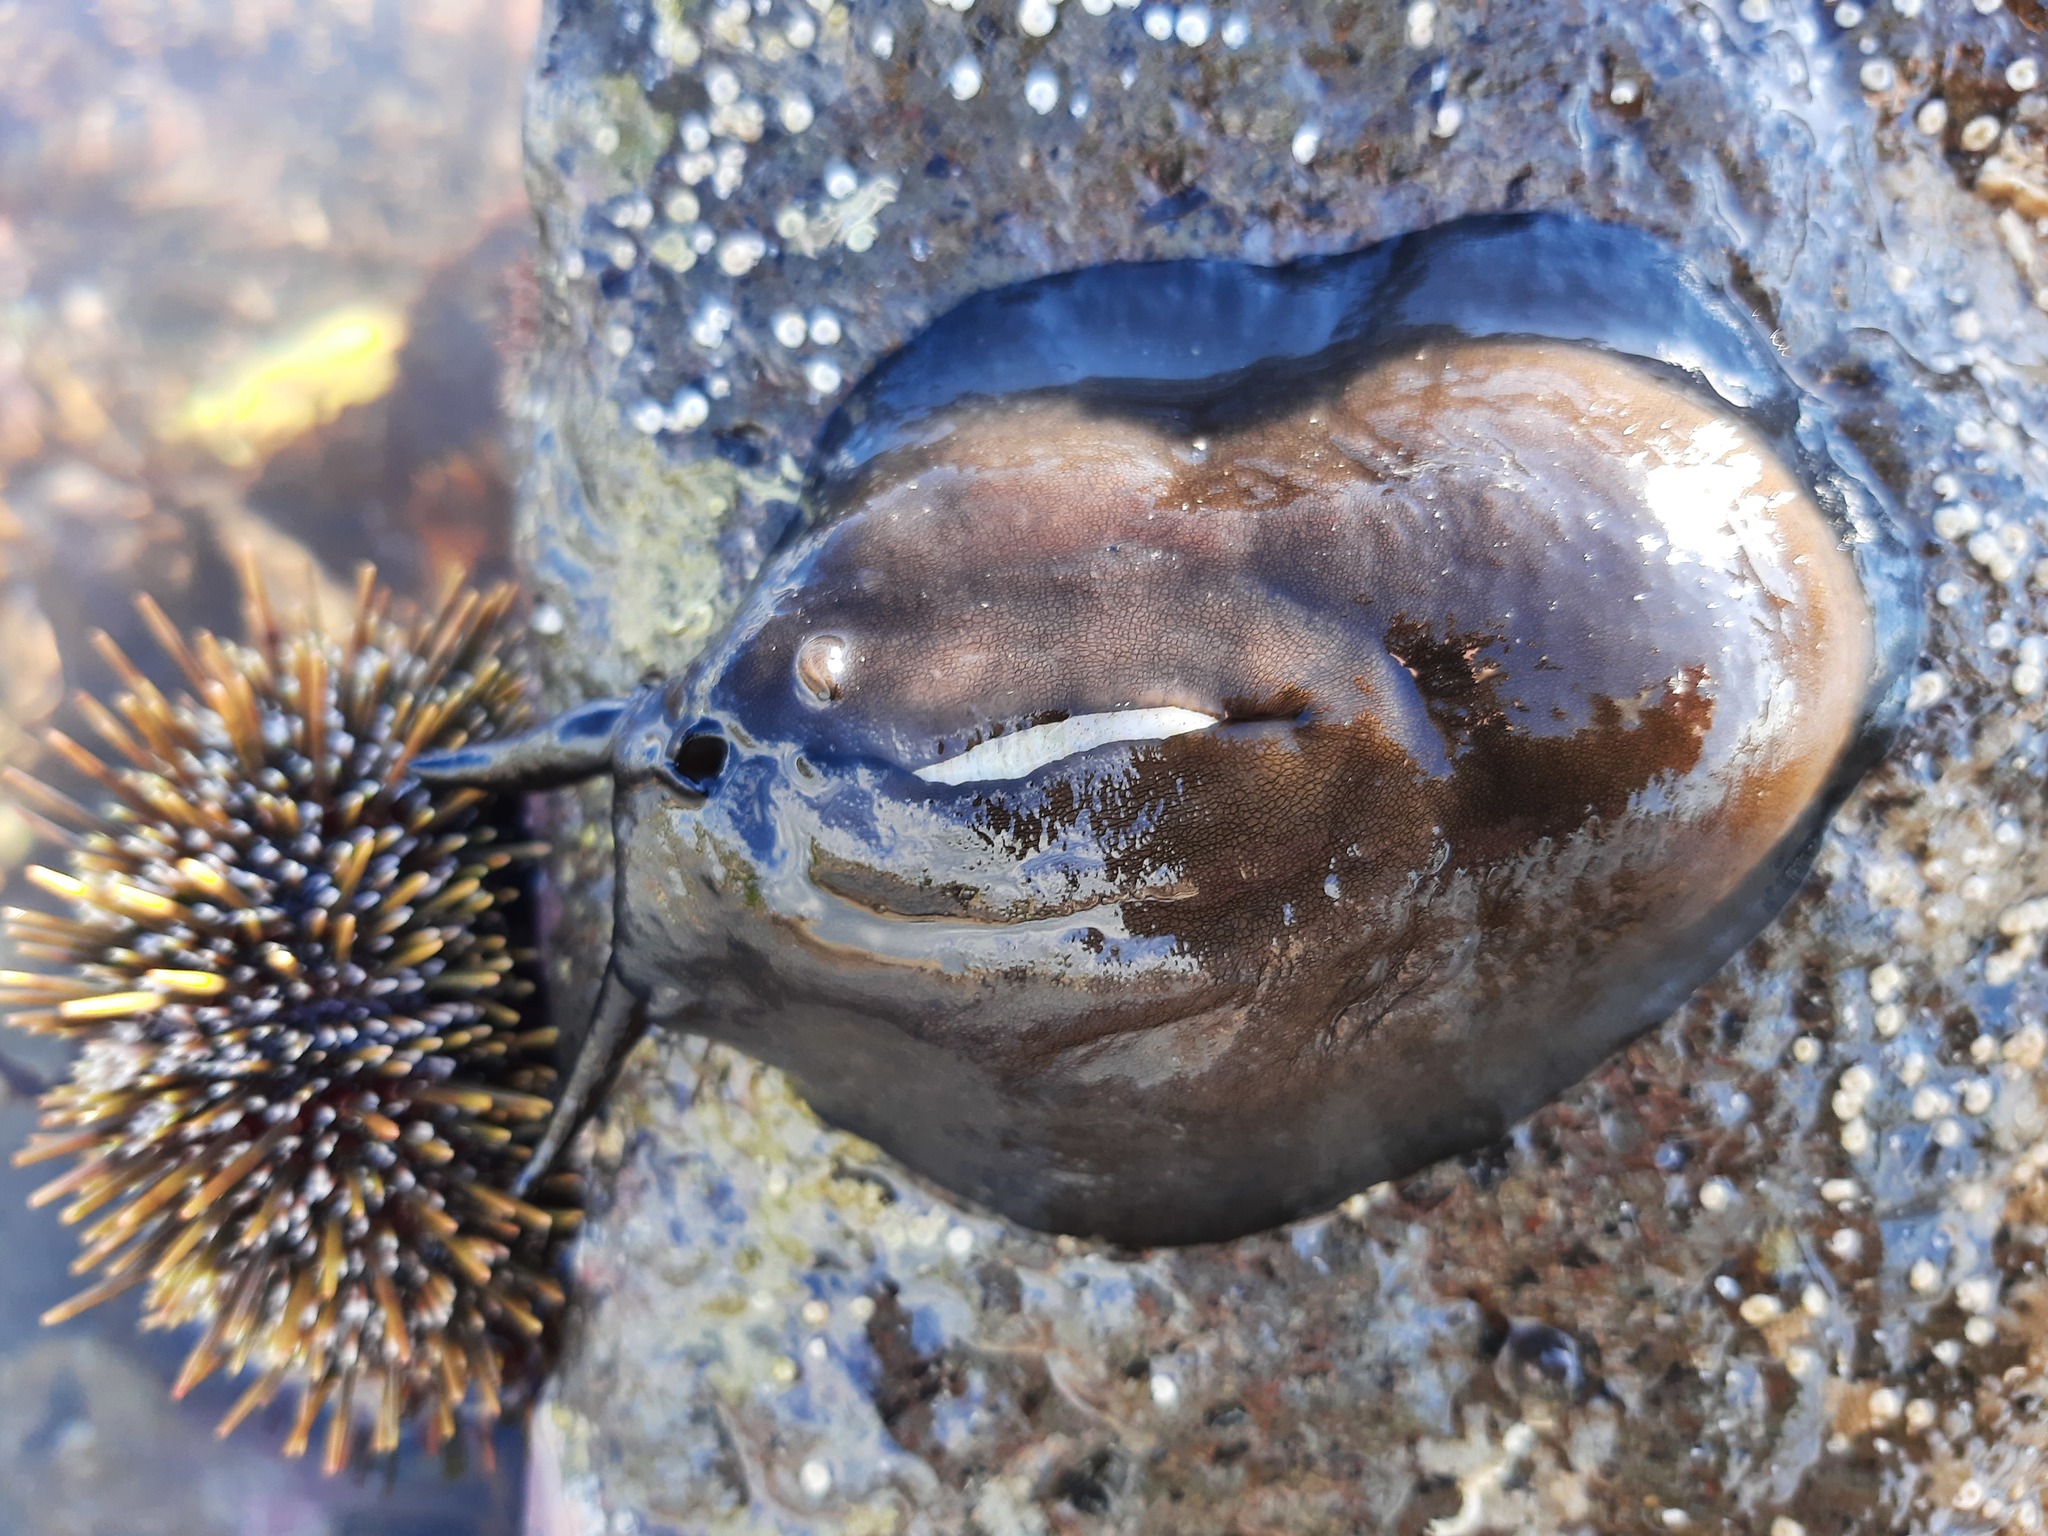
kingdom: Animalia
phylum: Mollusca
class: Gastropoda
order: Lepetellida
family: Fissurellidae
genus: Scutus
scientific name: Scutus breviculus
